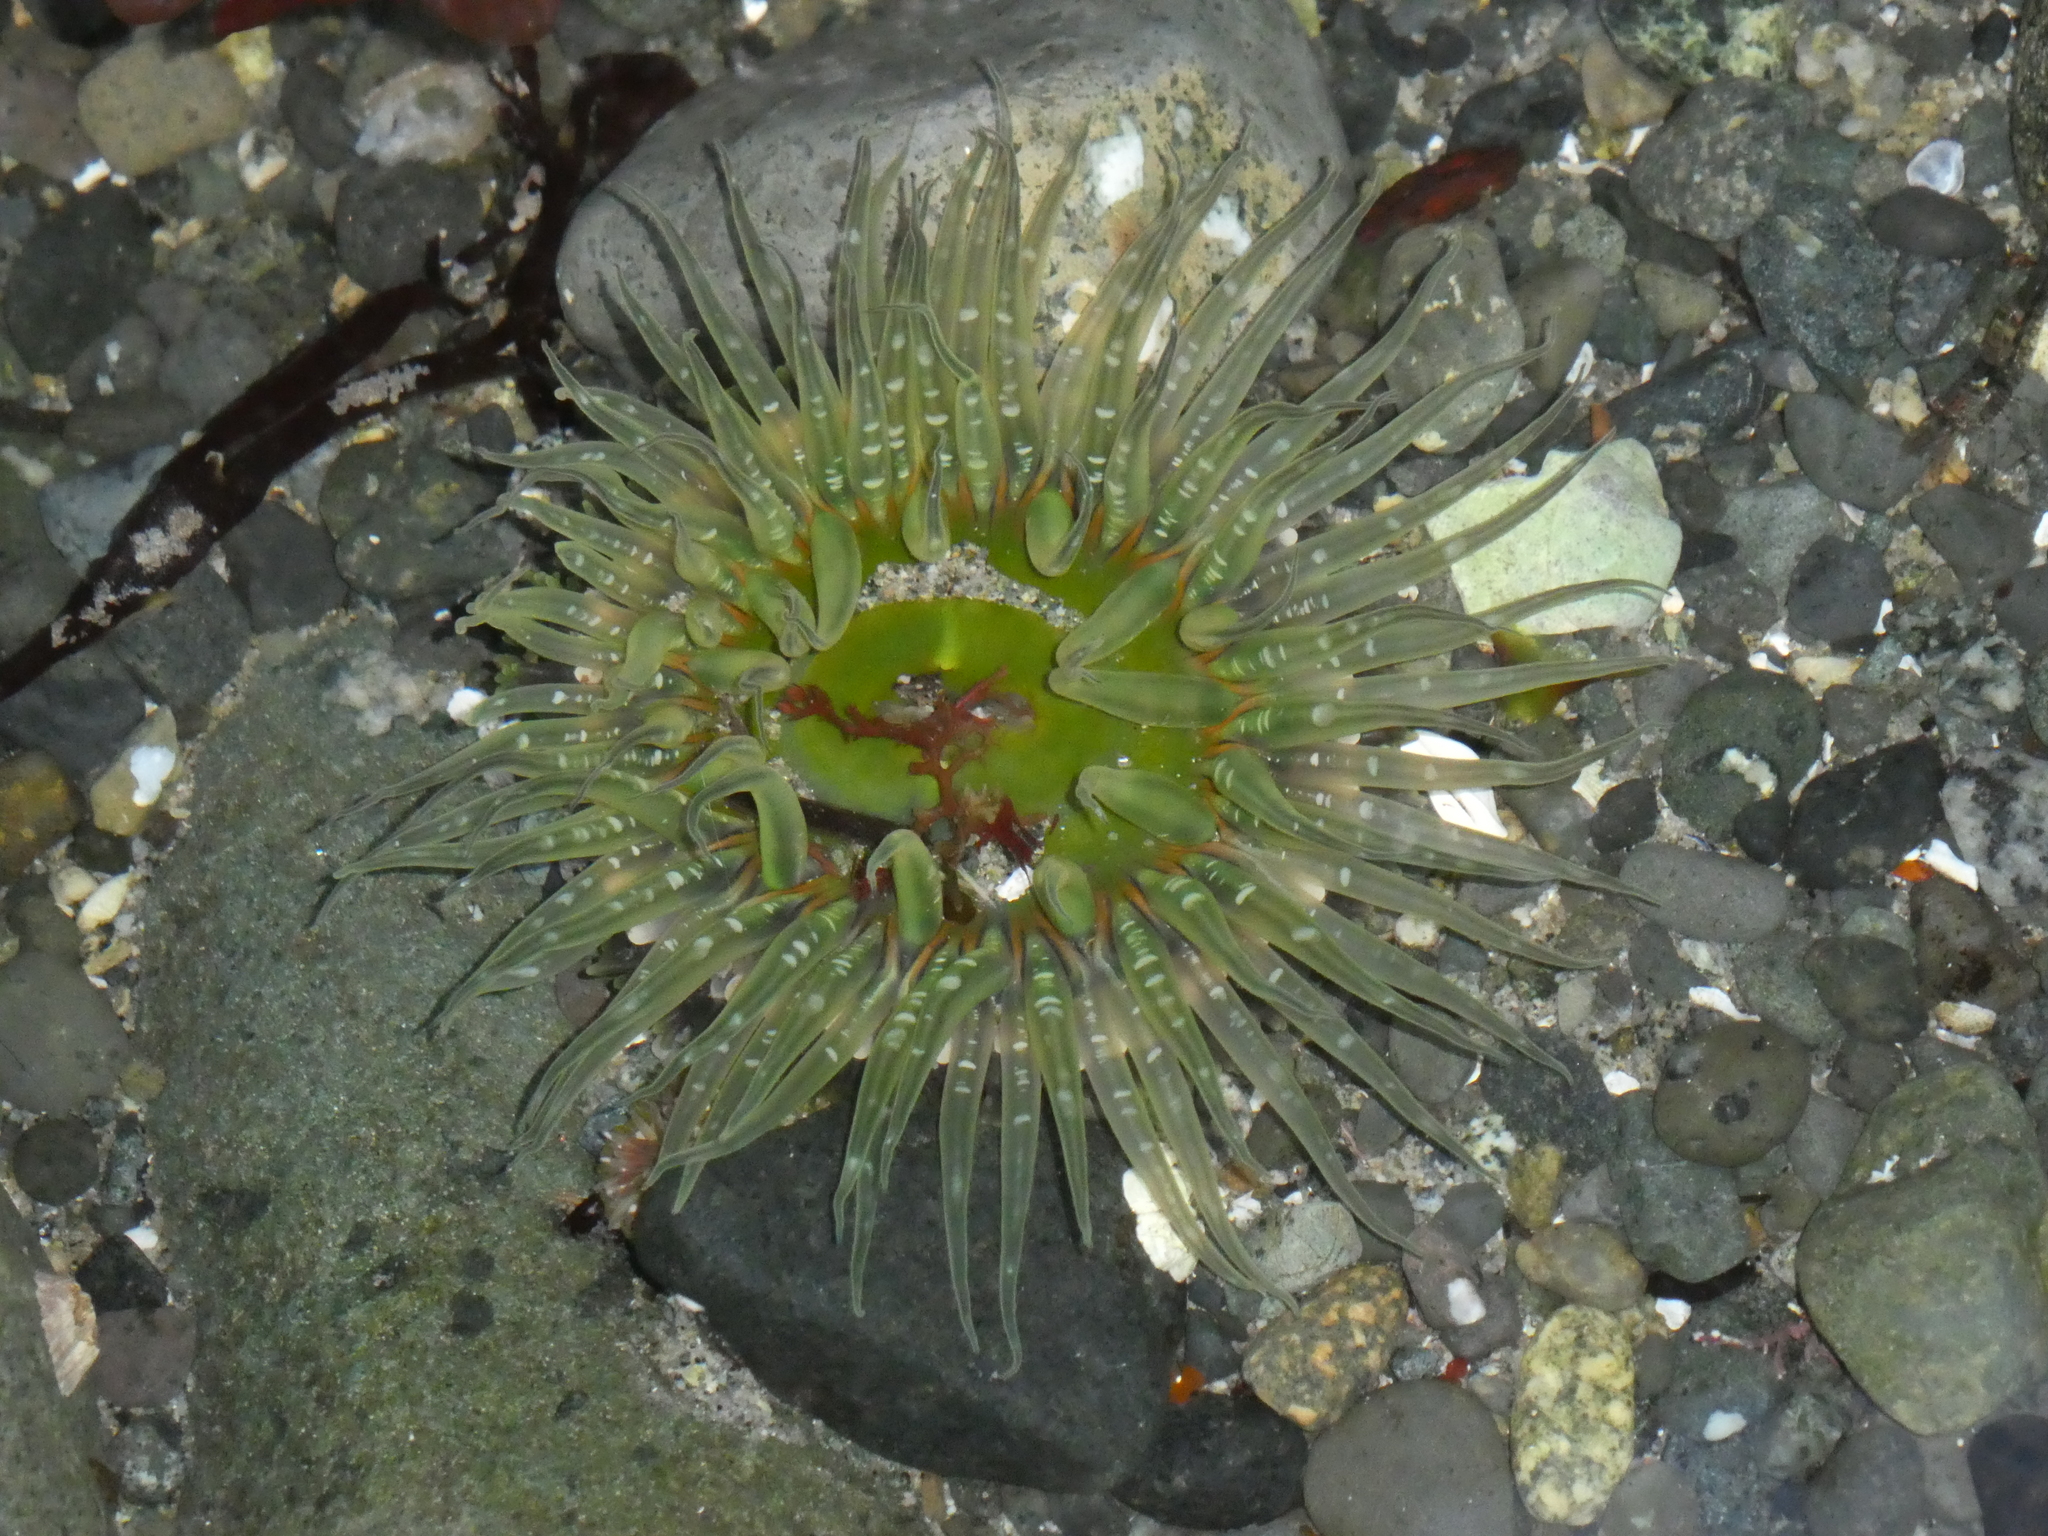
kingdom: Animalia
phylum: Cnidaria
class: Anthozoa
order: Actiniaria
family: Actiniidae
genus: Anthopleura
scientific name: Anthopleura artemisia
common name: Buried sea anemone
